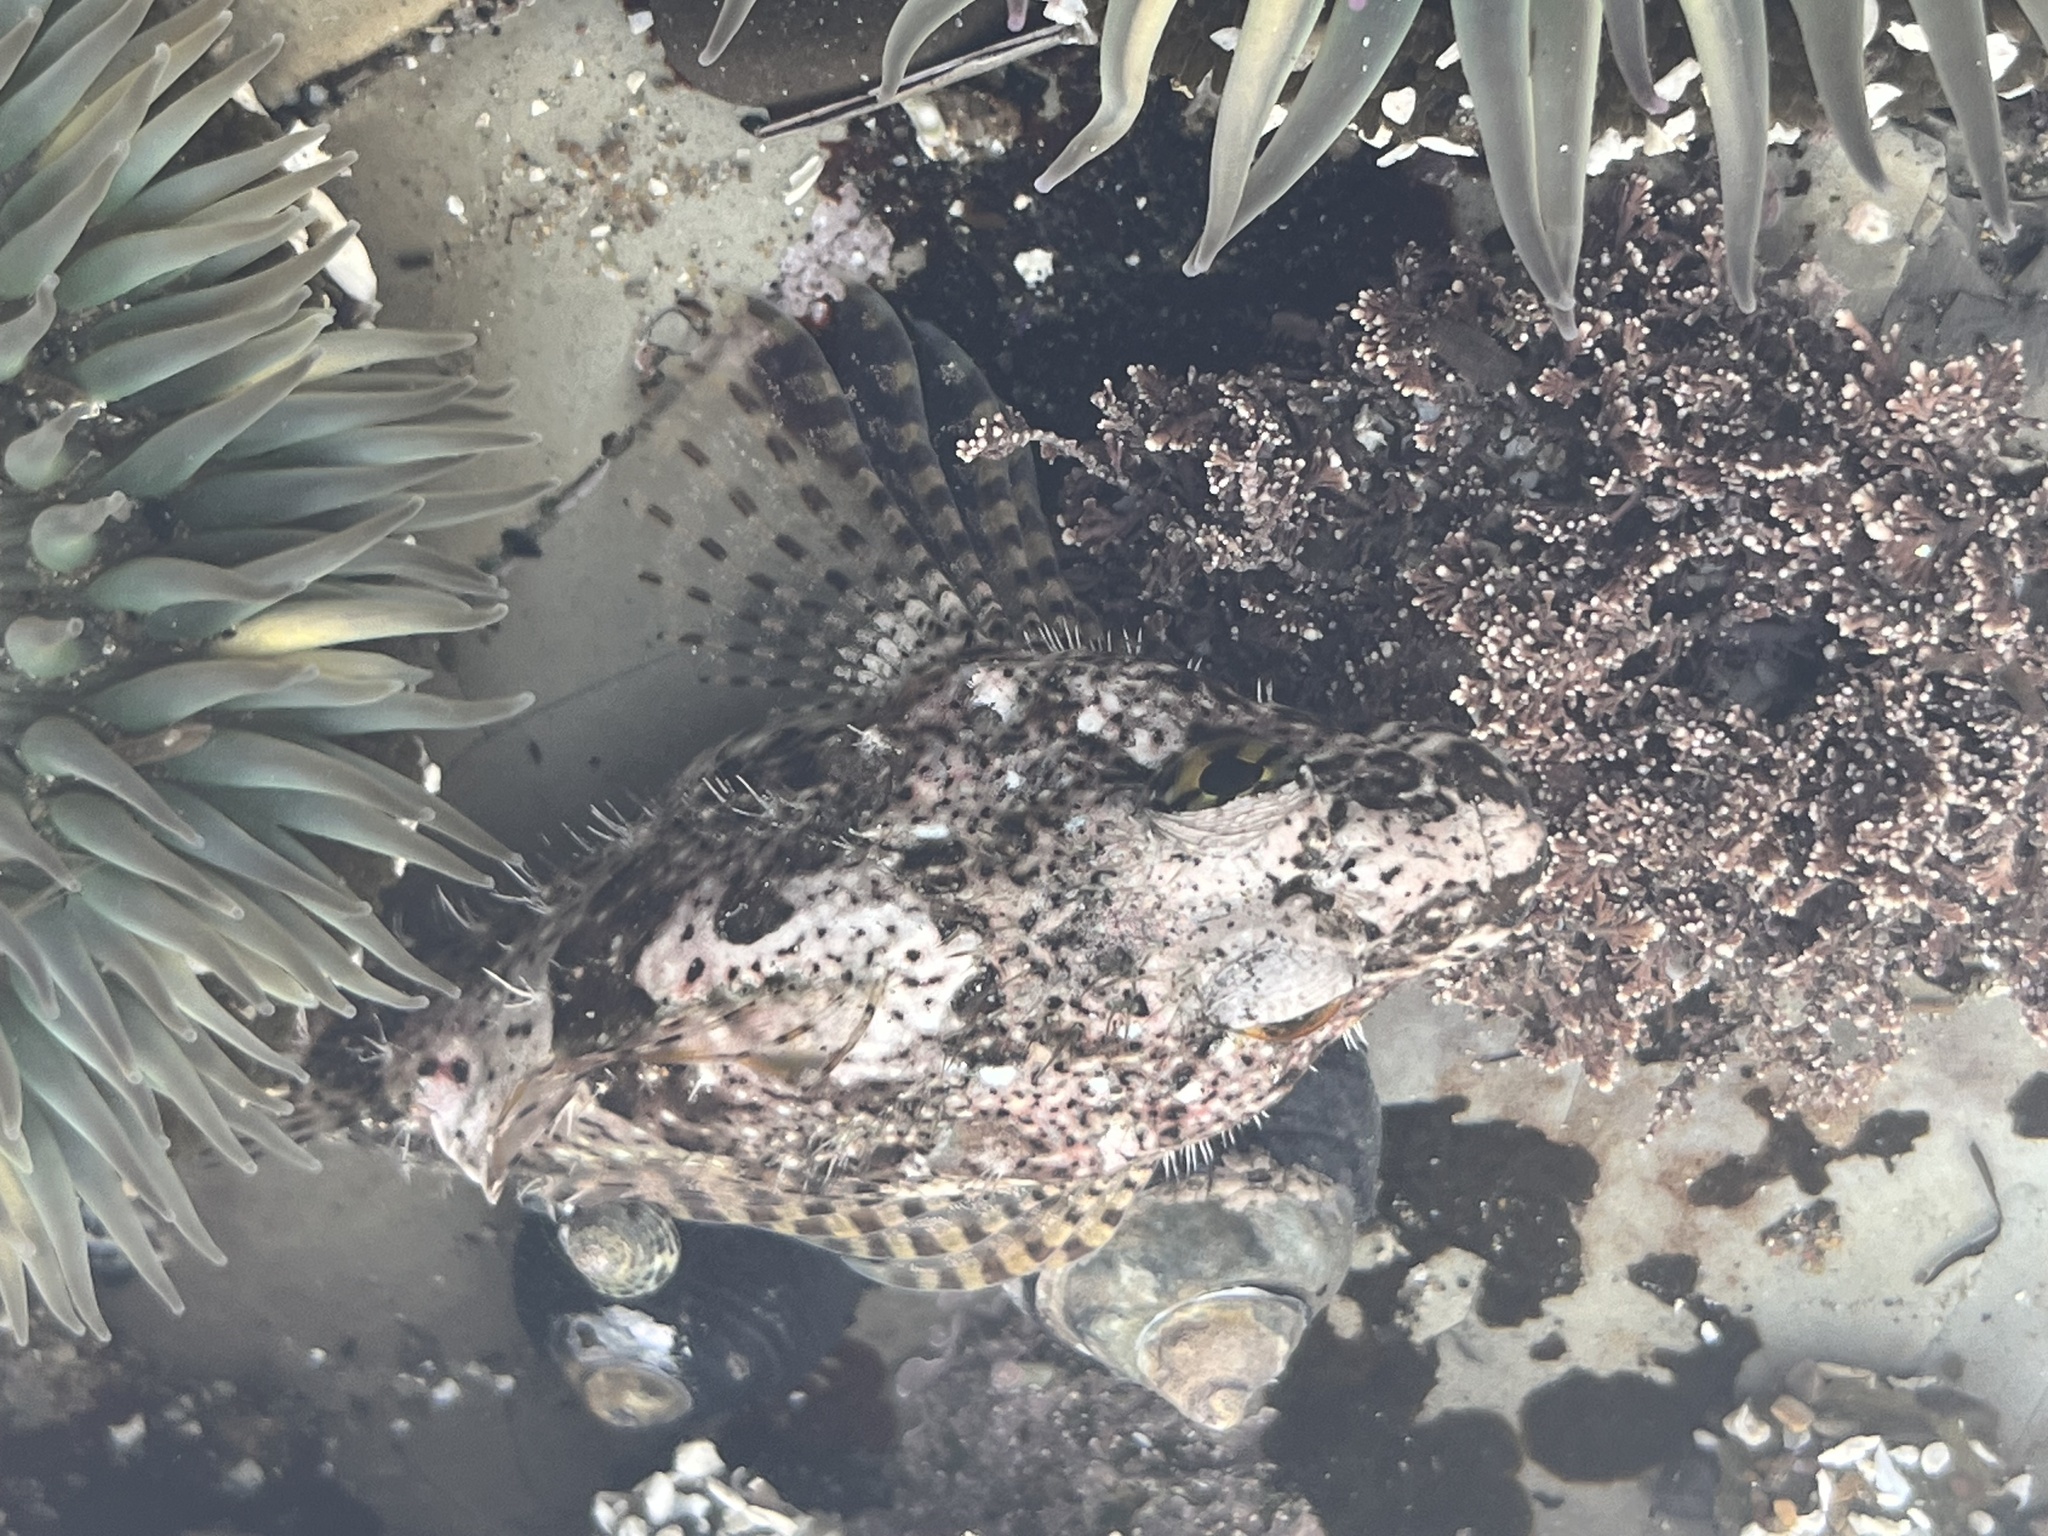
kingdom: Animalia
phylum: Chordata
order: Scorpaeniformes
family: Cottidae
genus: Clinocottus
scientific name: Clinocottus analis
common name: Woolly sculpin
